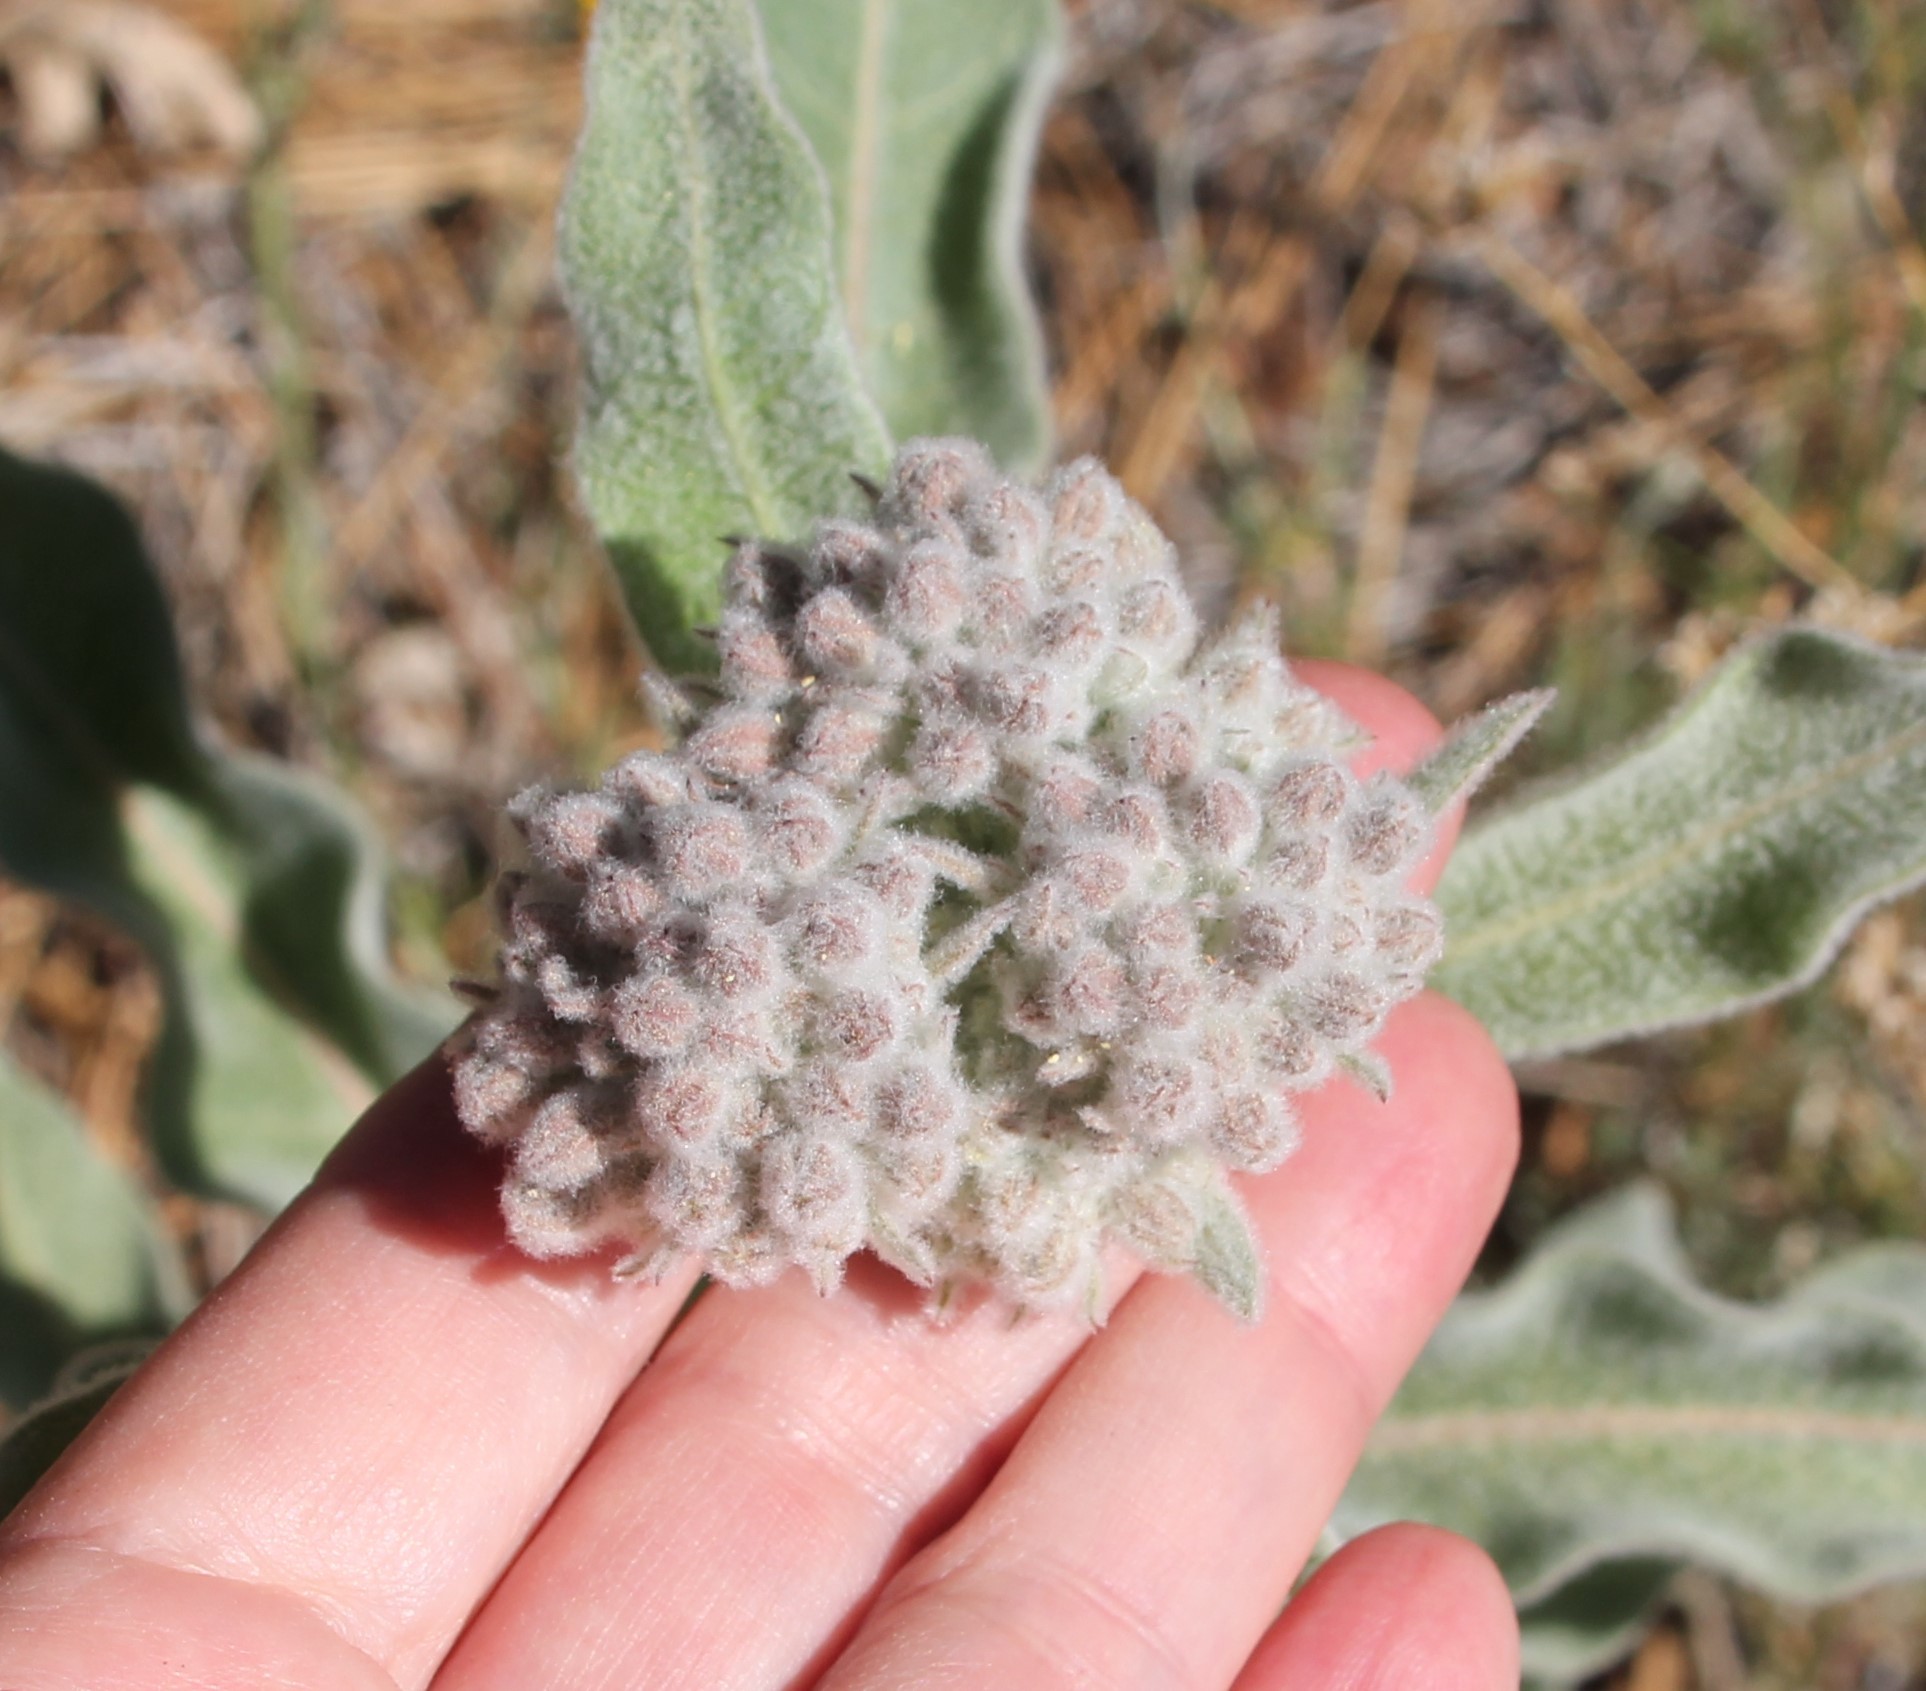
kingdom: Plantae
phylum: Tracheophyta
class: Magnoliopsida
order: Gentianales
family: Apocynaceae
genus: Asclepias
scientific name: Asclepias eriocarpa
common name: Indian milkweed
